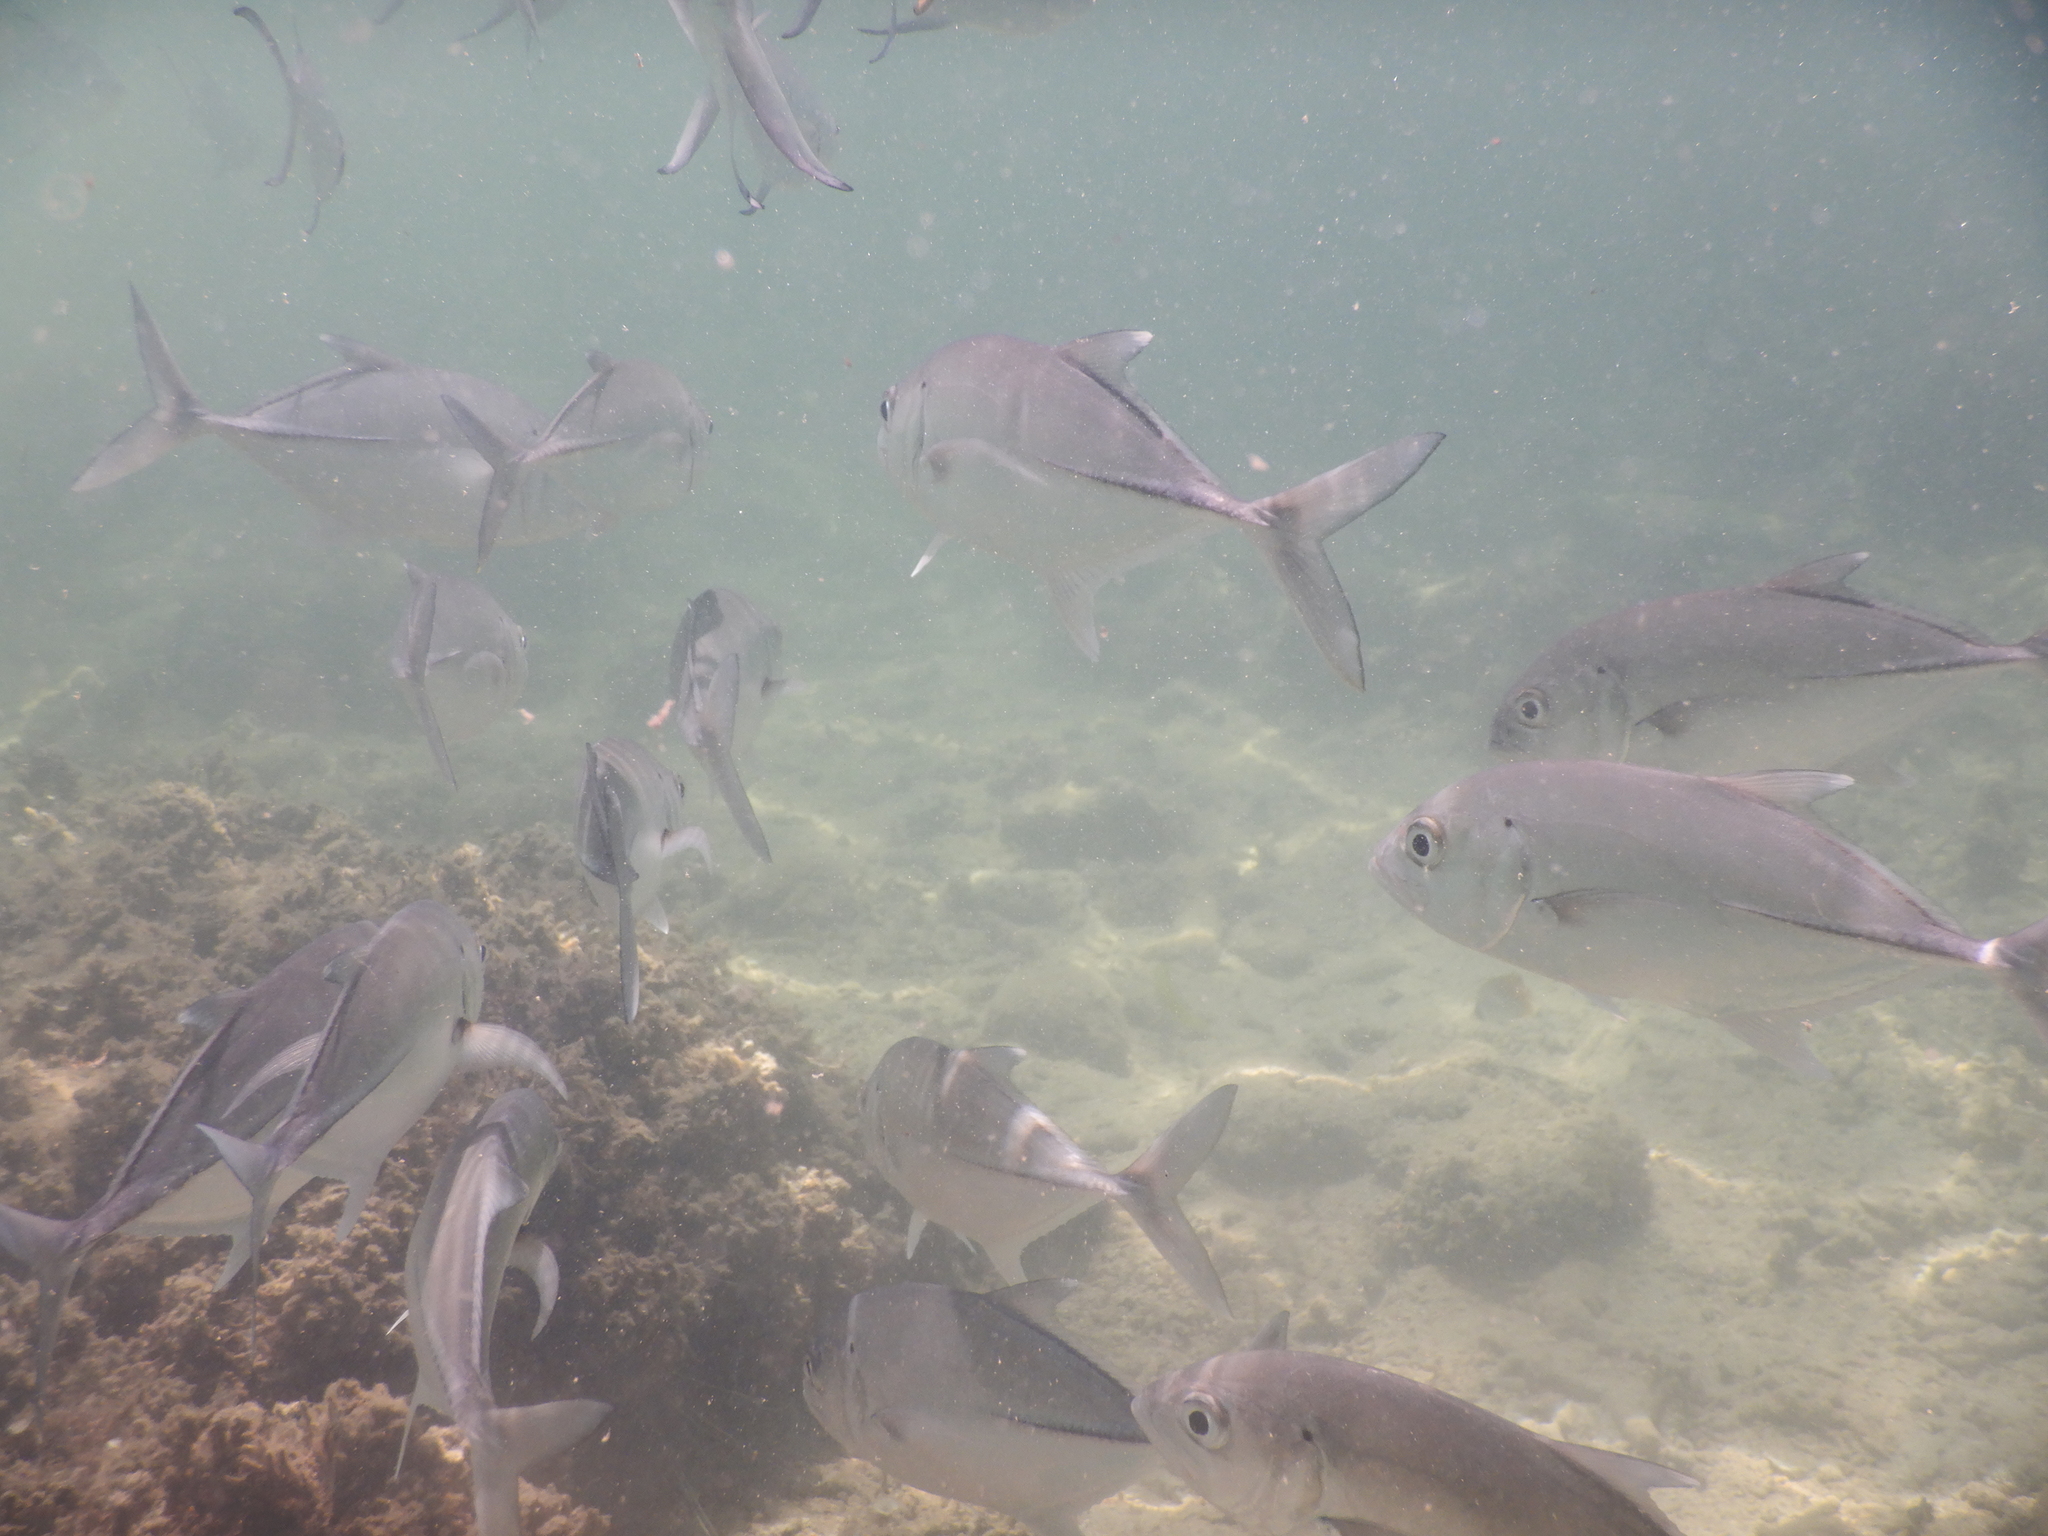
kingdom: Animalia
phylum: Chordata
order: Perciformes
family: Carangidae
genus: Caranx
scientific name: Caranx sexfasciatus
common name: Bigeye trevally
